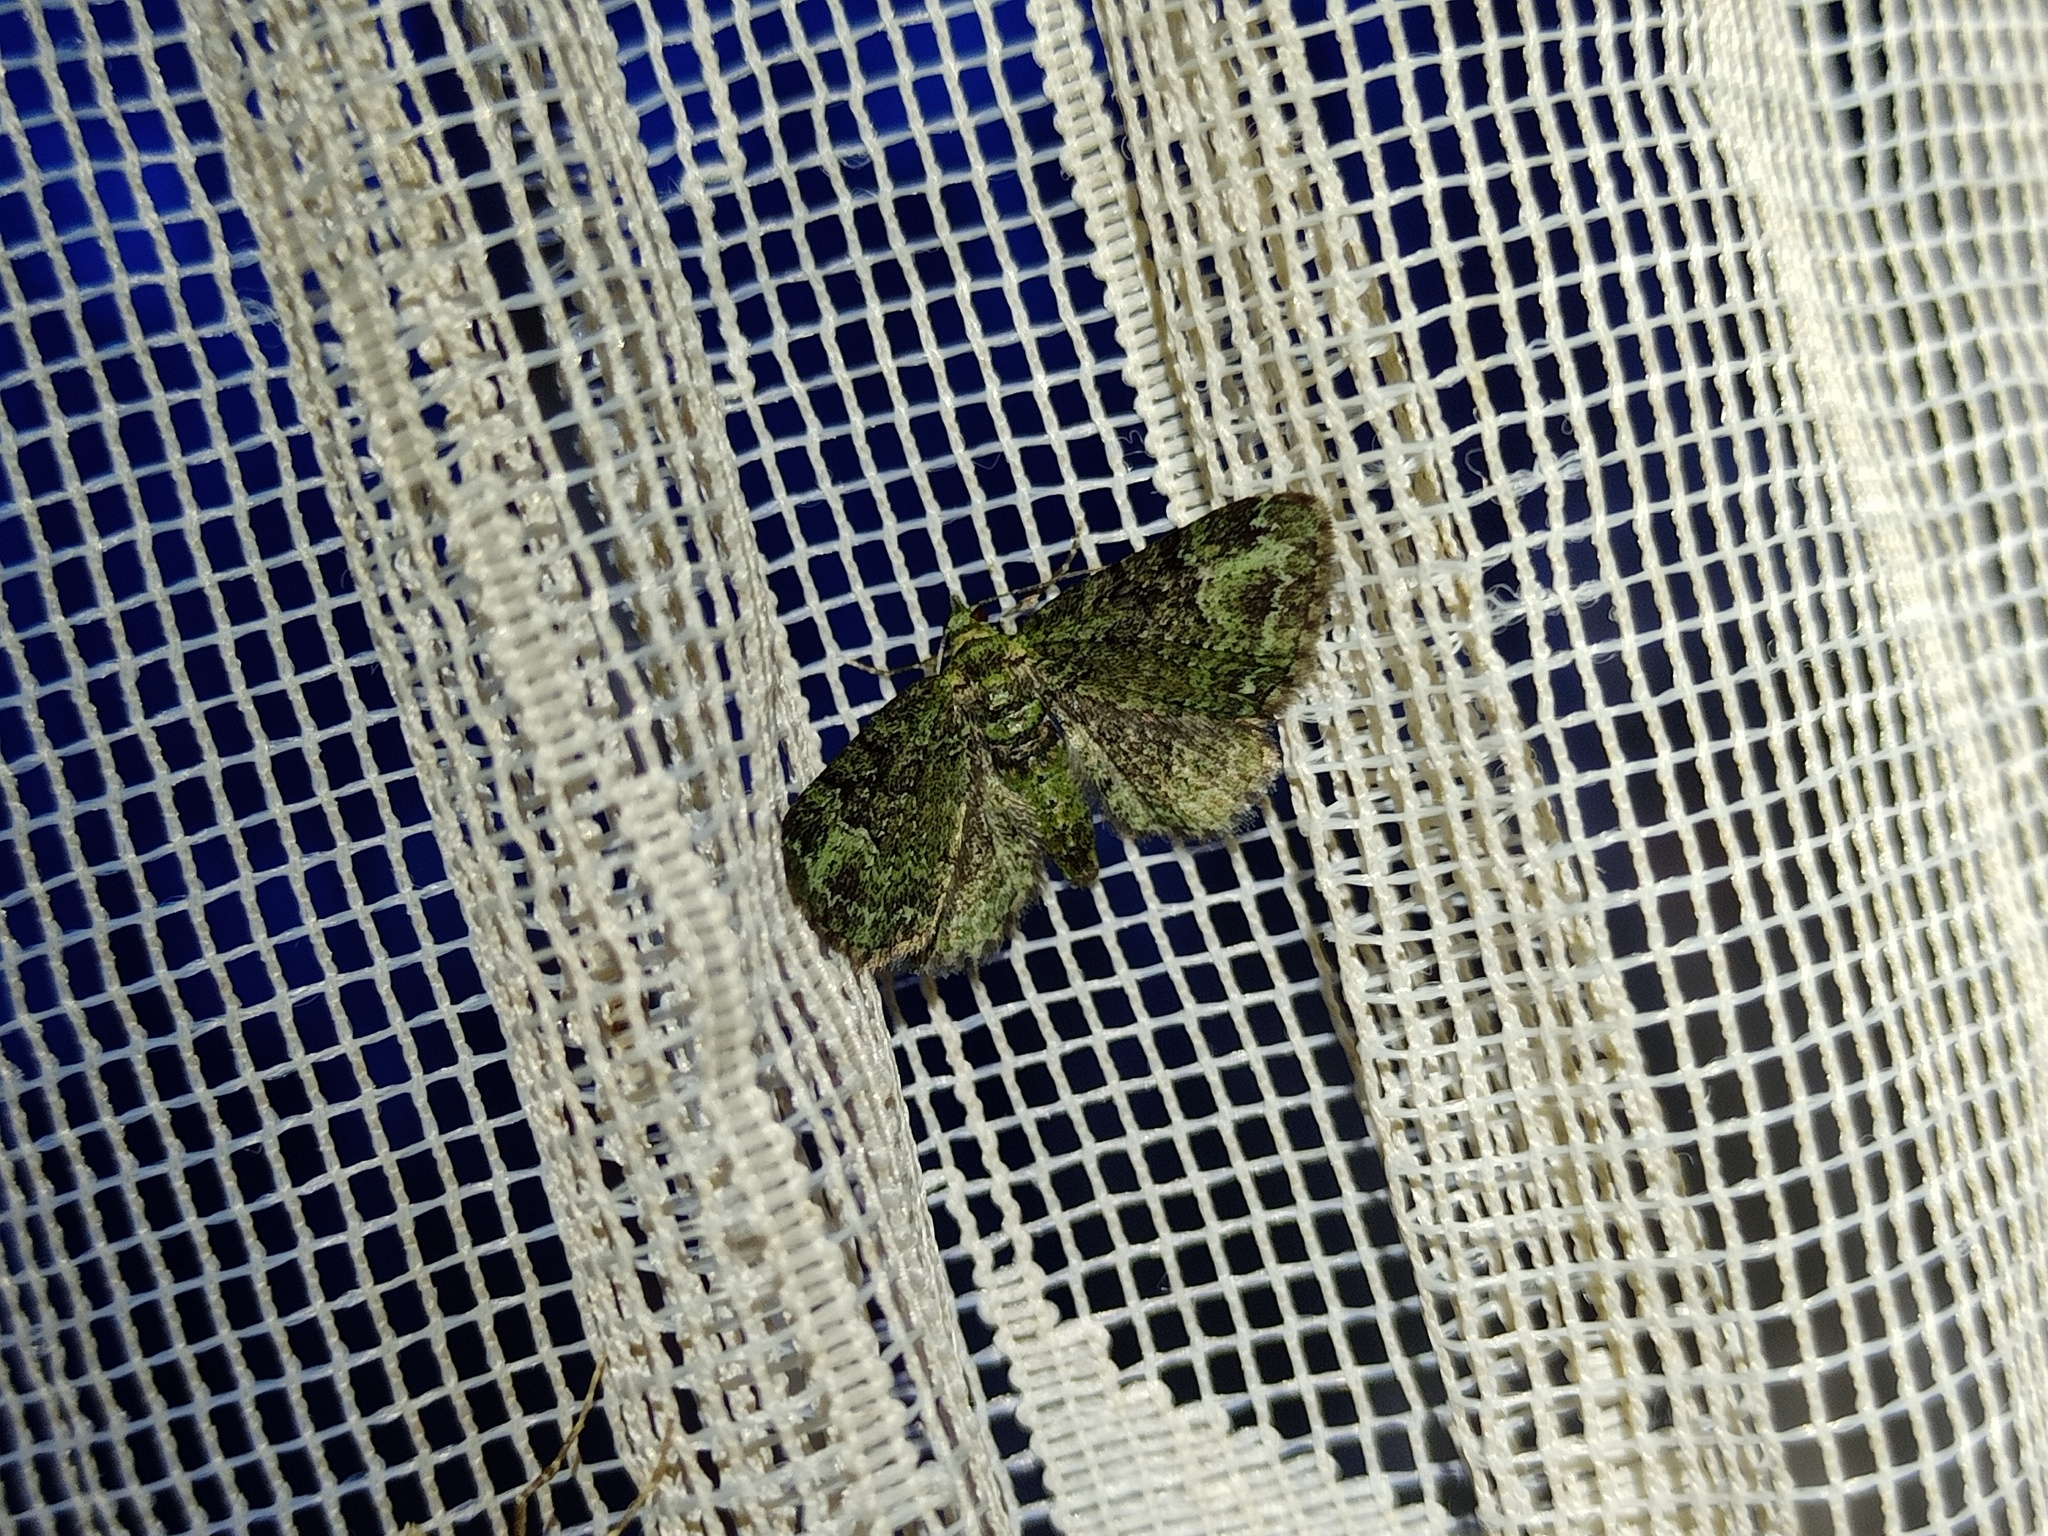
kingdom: Animalia
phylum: Arthropoda
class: Insecta
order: Lepidoptera
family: Geometridae
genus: Pasiphila
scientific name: Pasiphila rectangulata
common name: Green pug
